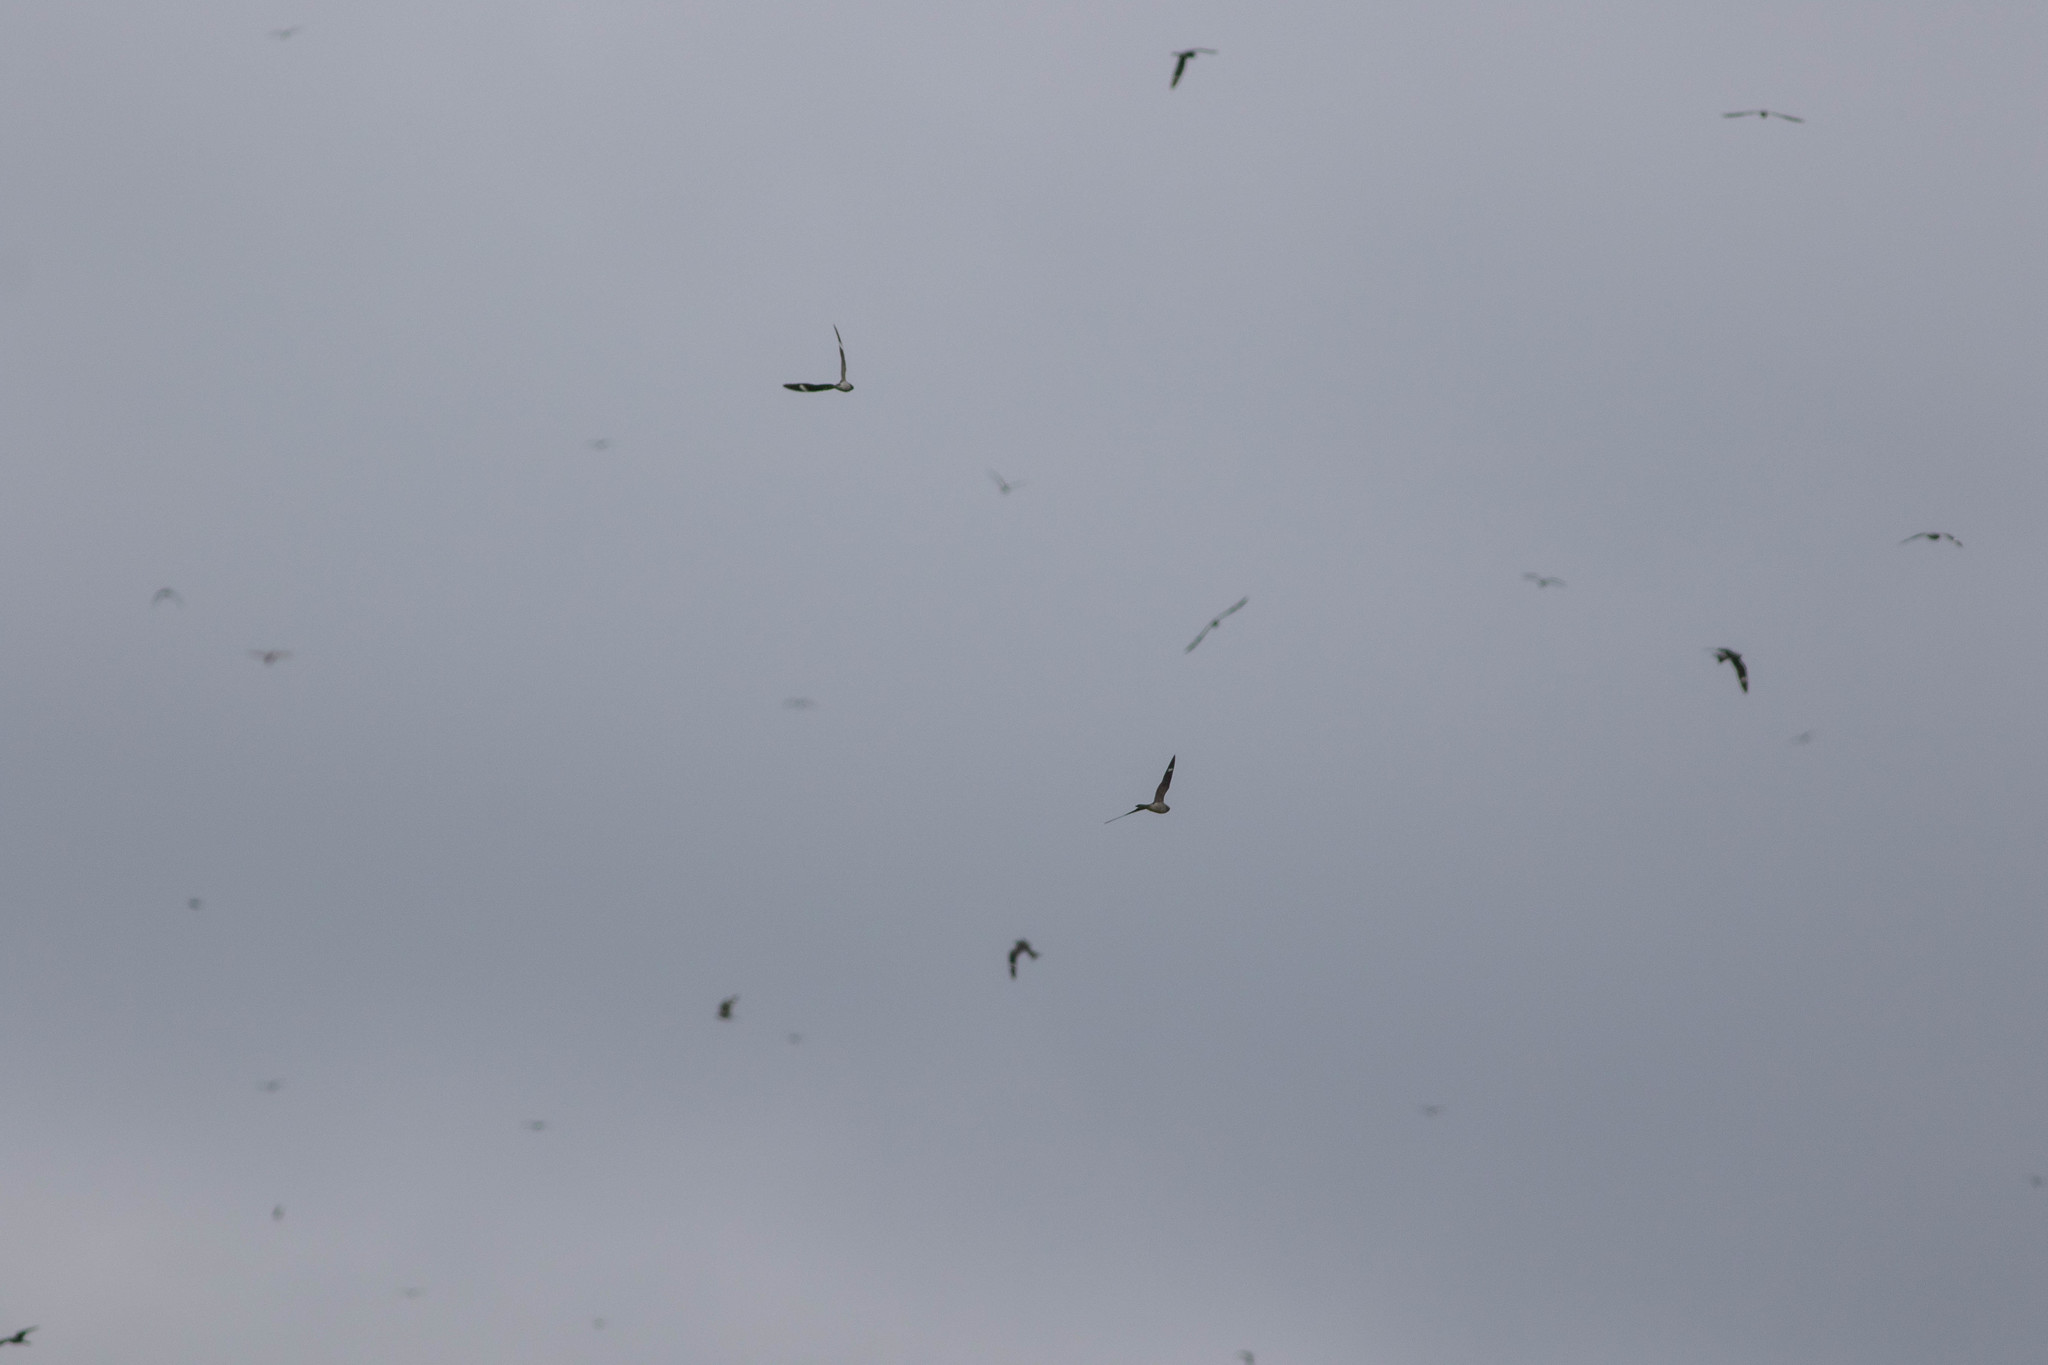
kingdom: Animalia
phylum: Chordata
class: Aves
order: Caprimulgiformes
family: Caprimulgidae
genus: Chordeiles
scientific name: Chordeiles minor
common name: Common nighthawk
